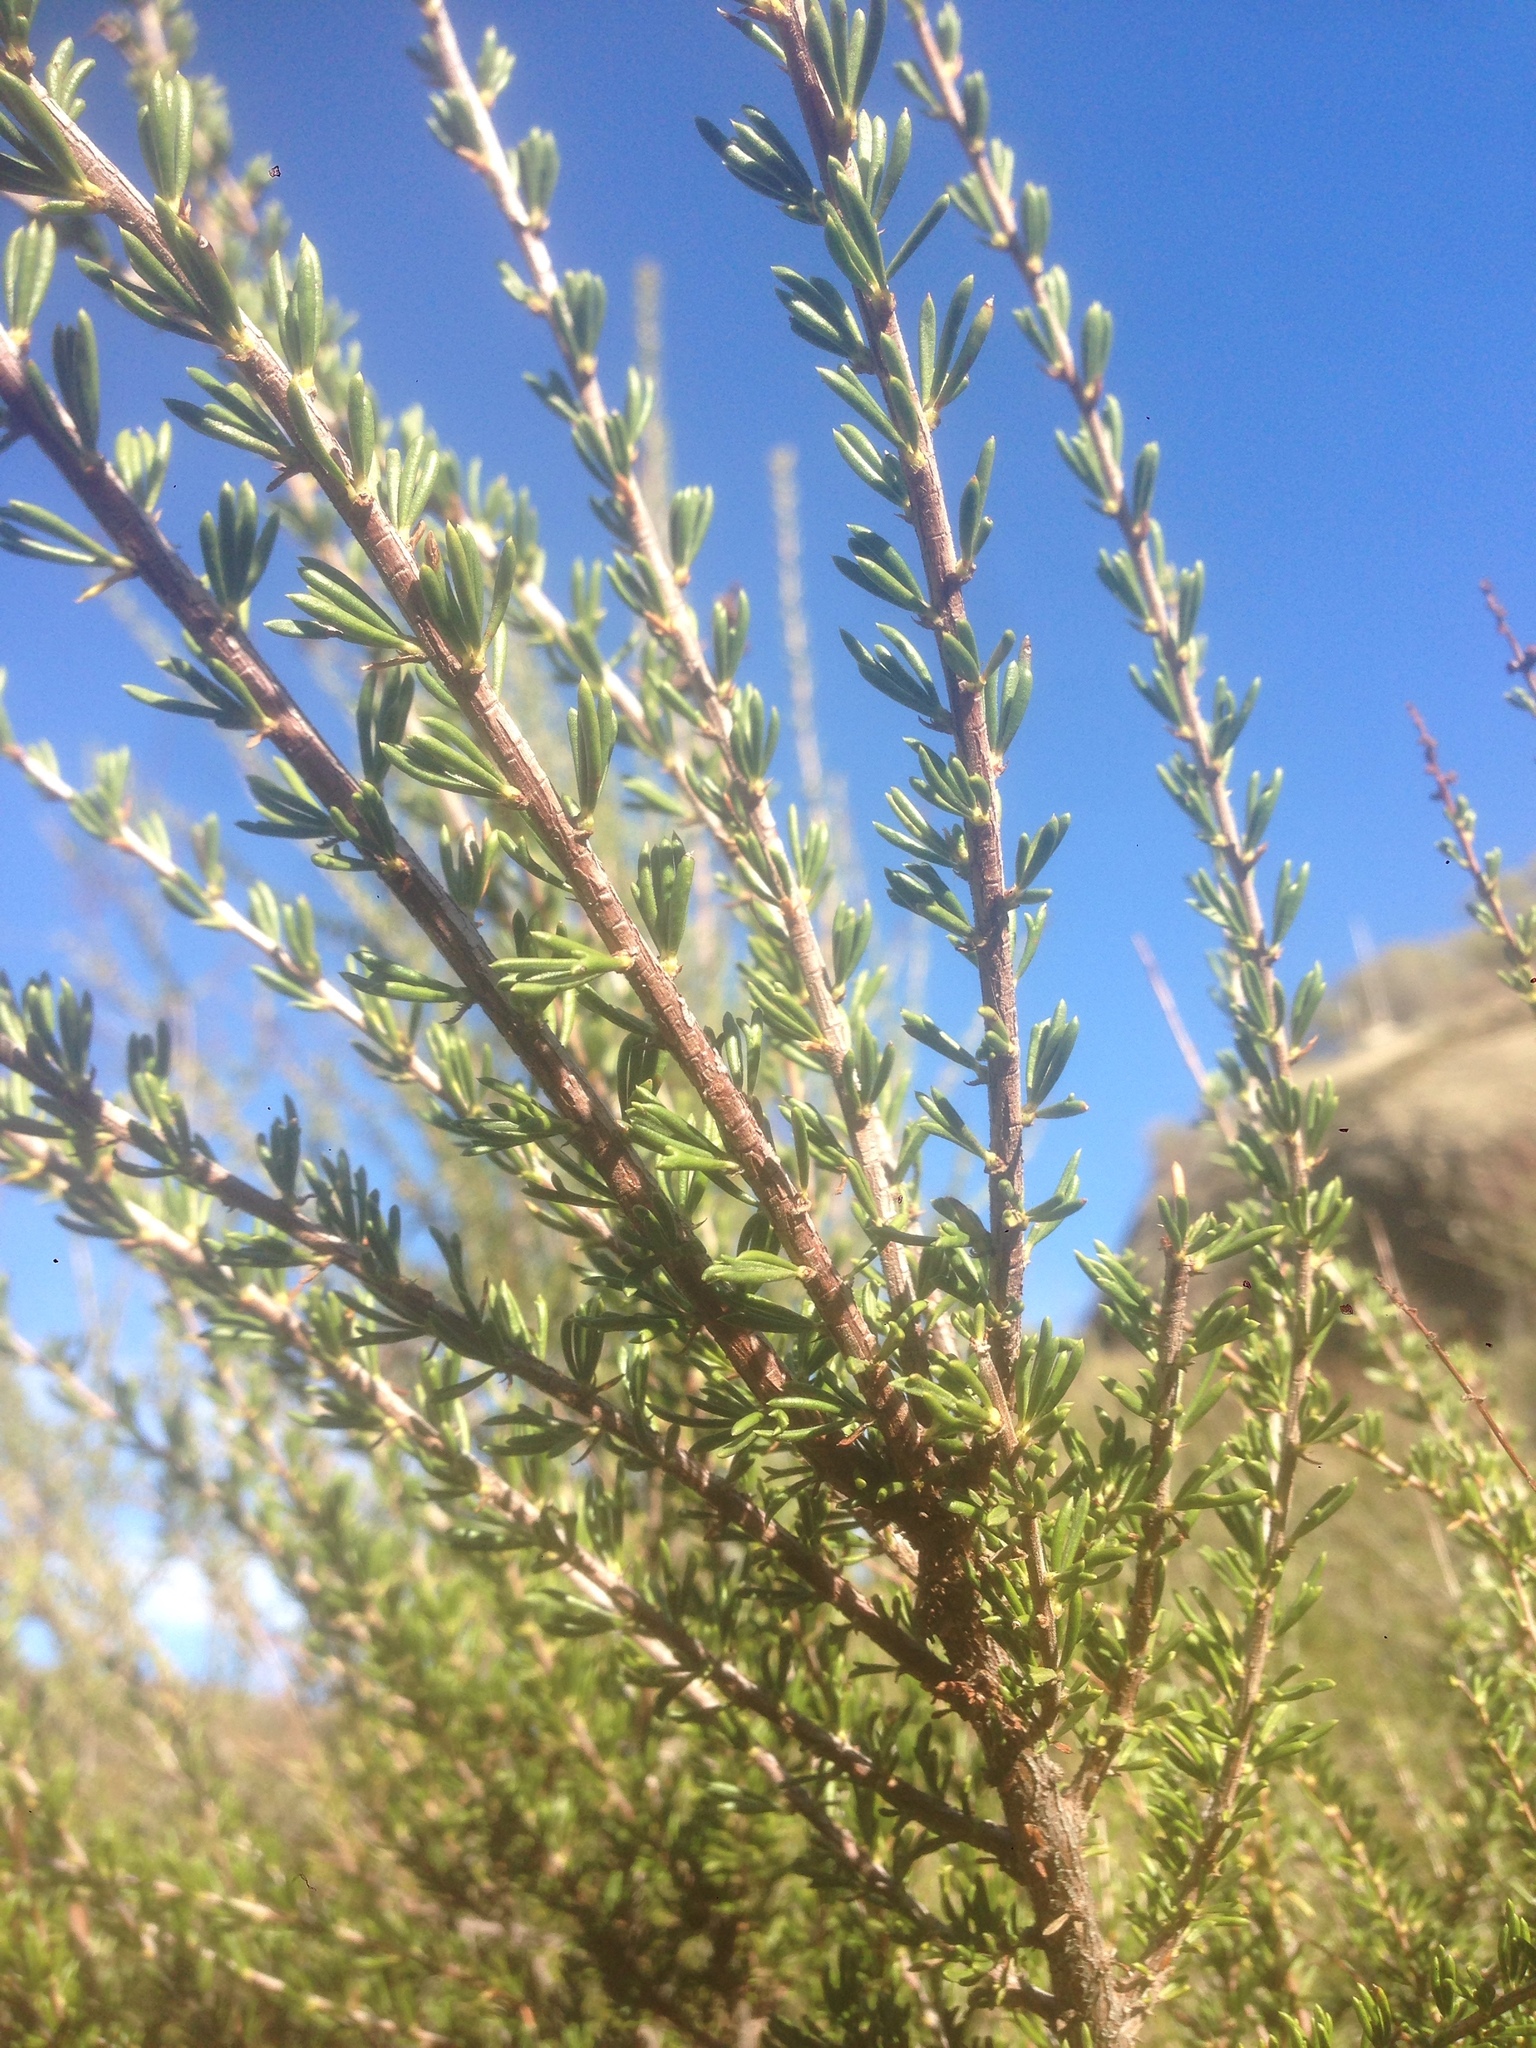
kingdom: Plantae
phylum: Tracheophyta
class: Magnoliopsida
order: Rosales
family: Rosaceae
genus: Adenostoma
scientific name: Adenostoma fasciculatum
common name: Chamise
